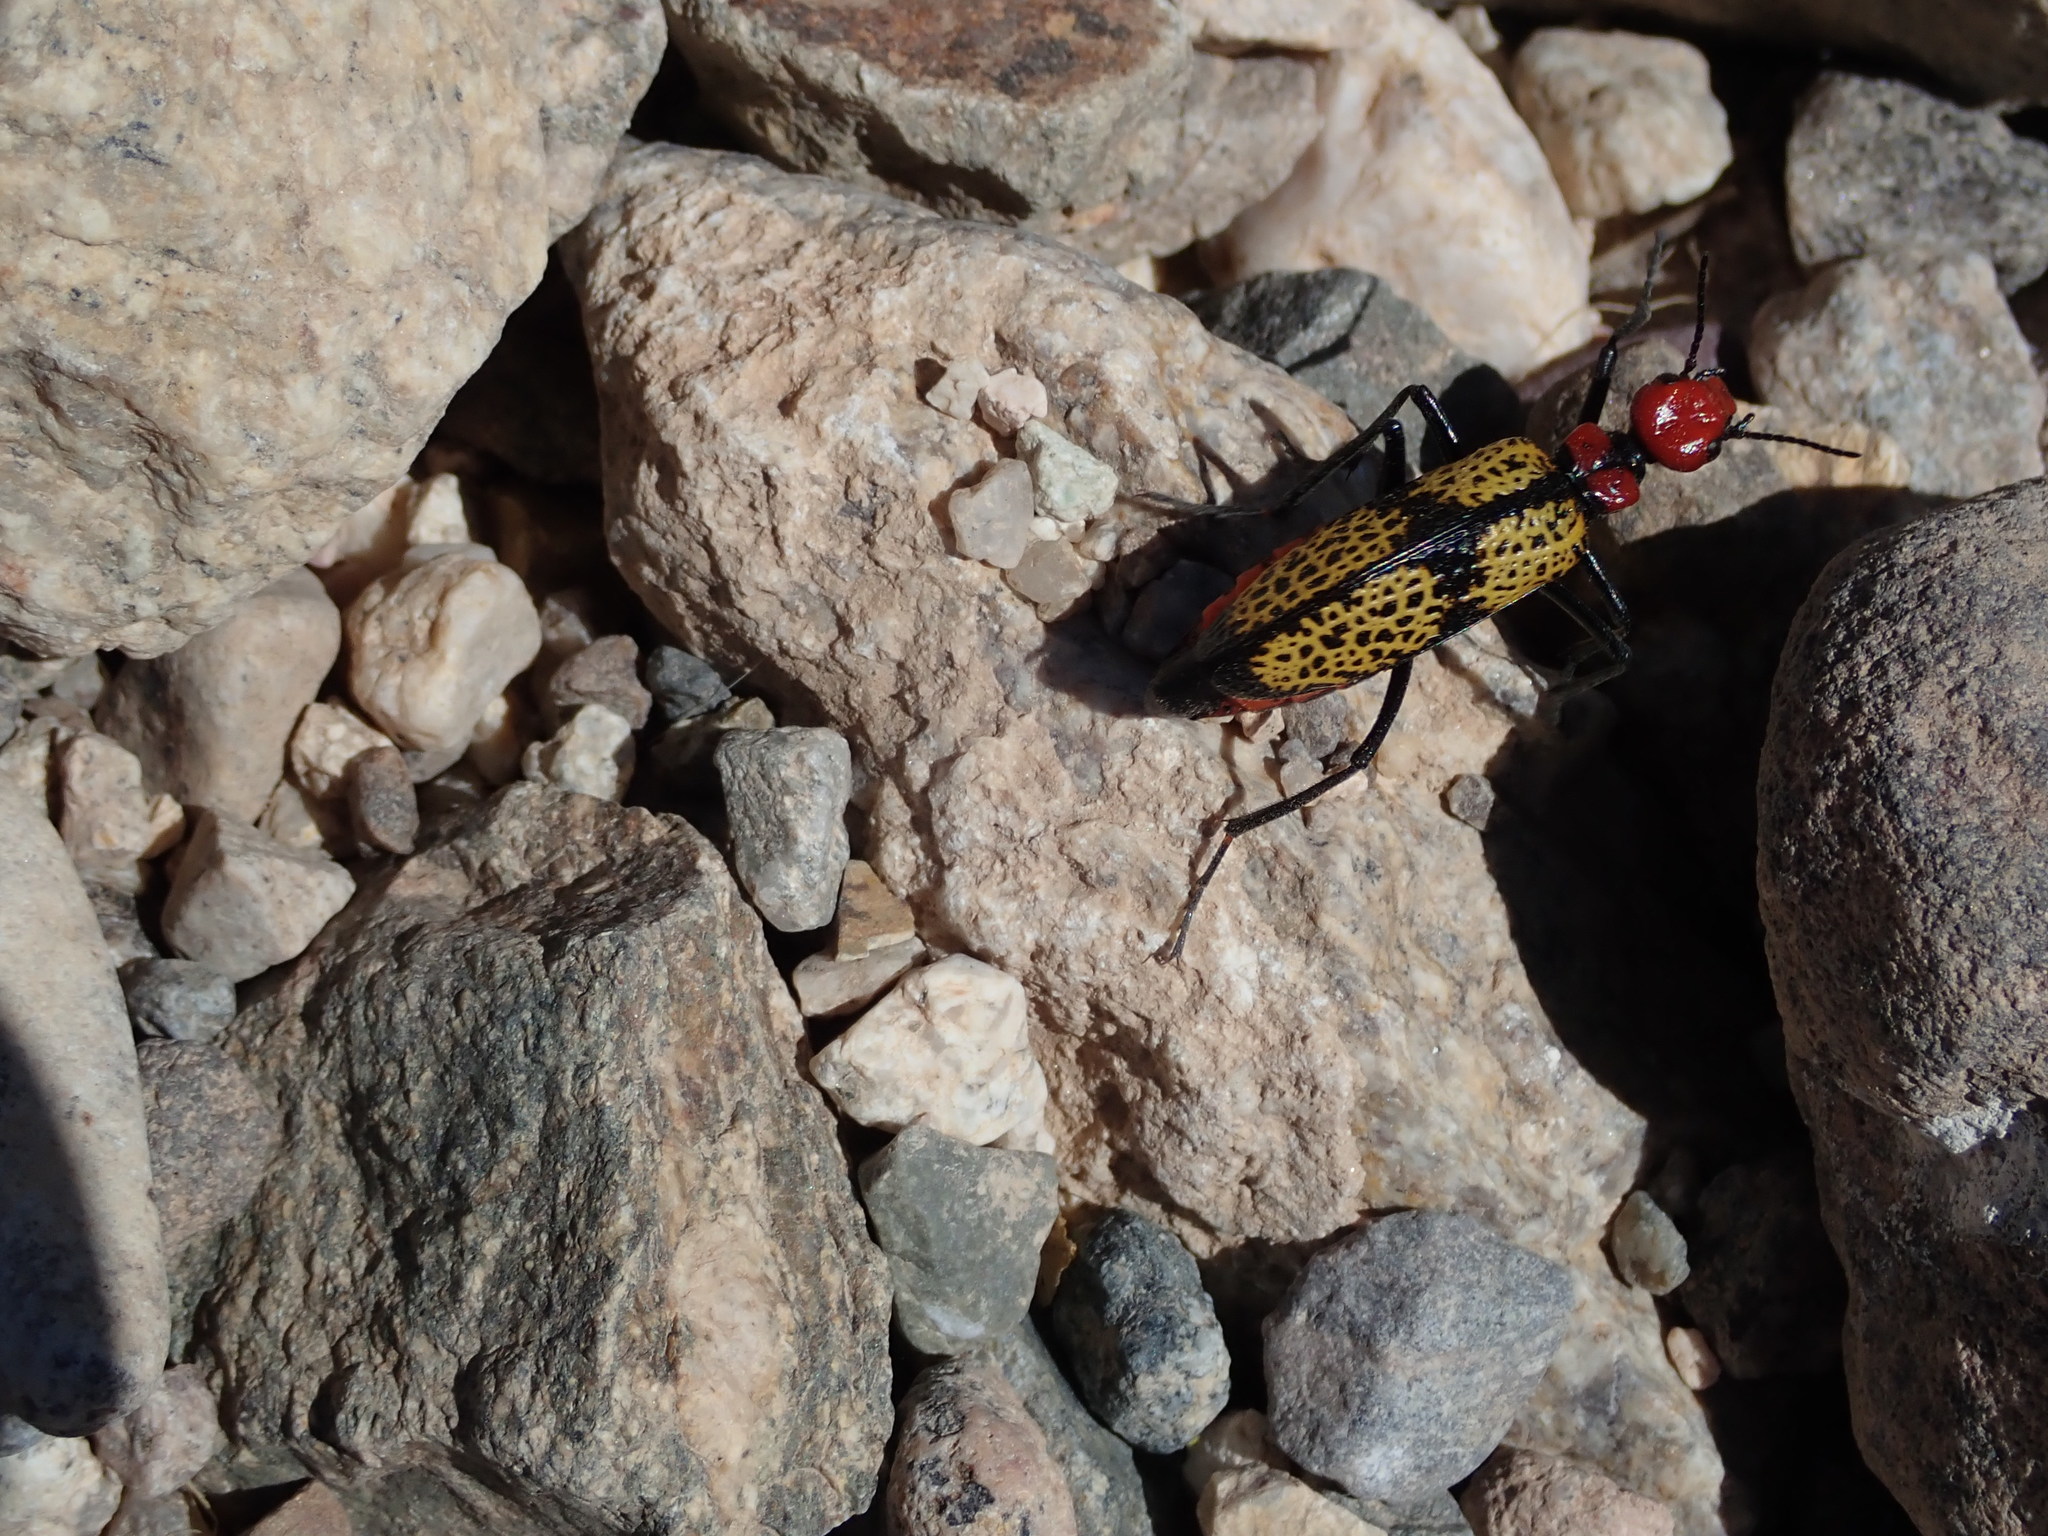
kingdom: Animalia
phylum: Arthropoda
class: Insecta
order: Coleoptera
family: Meloidae
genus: Tegrodera
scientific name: Tegrodera aloga
